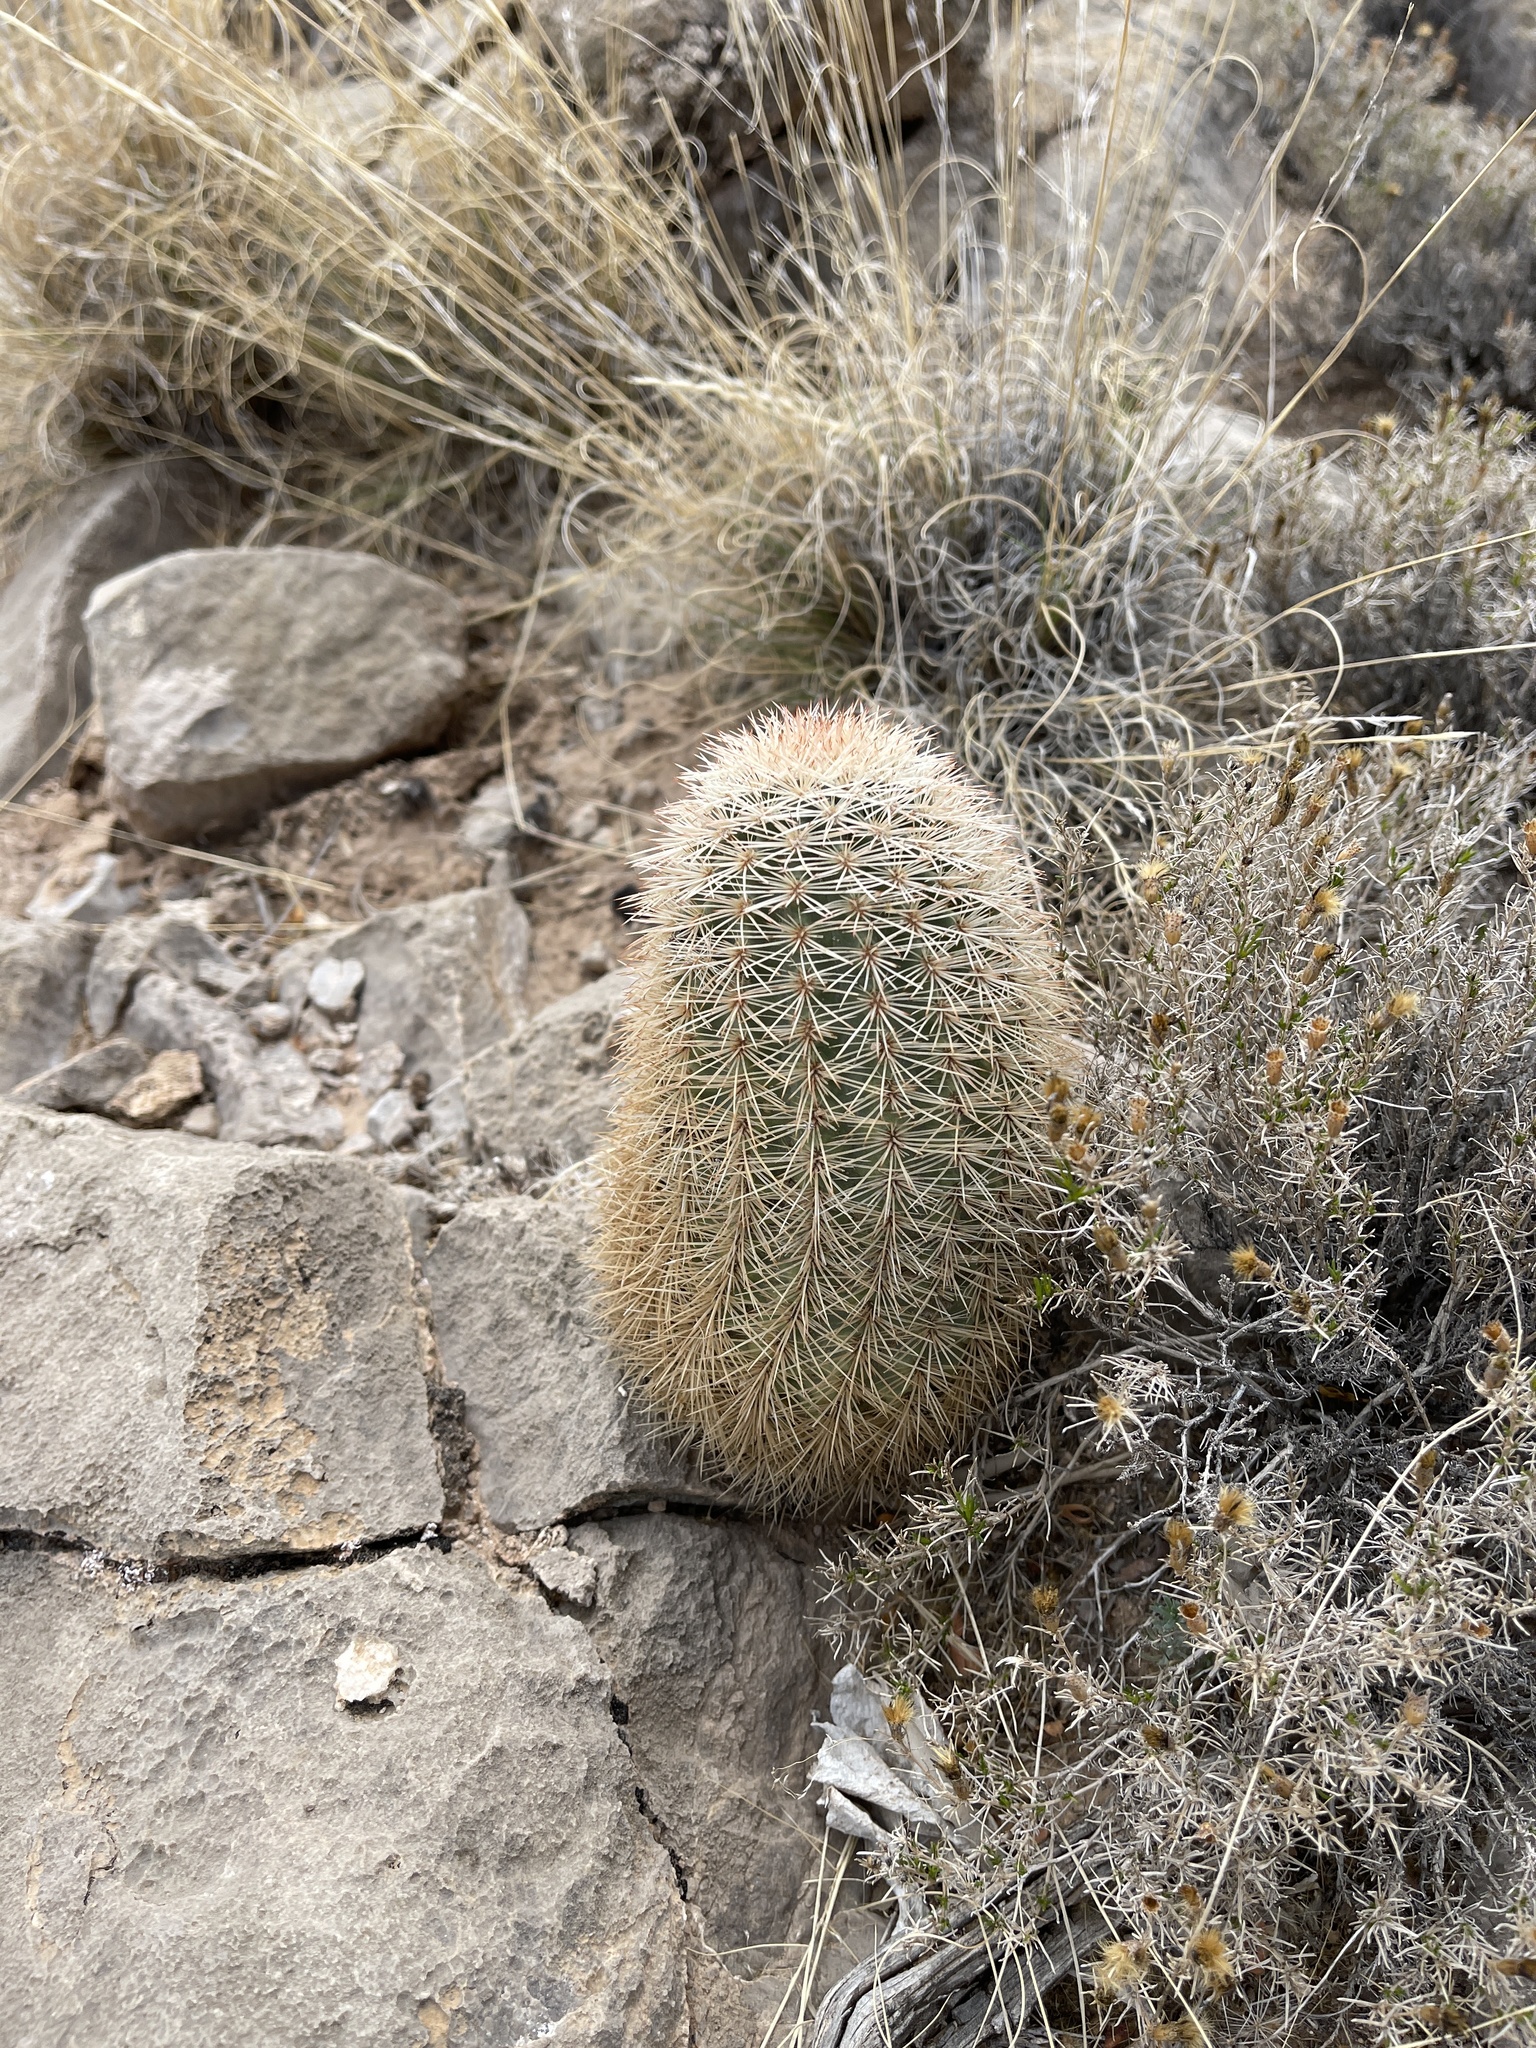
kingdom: Plantae
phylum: Tracheophyta
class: Magnoliopsida
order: Caryophyllales
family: Cactaceae
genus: Echinocereus
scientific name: Echinocereus dasyacanthus
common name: Spiny hedgehog cactus
